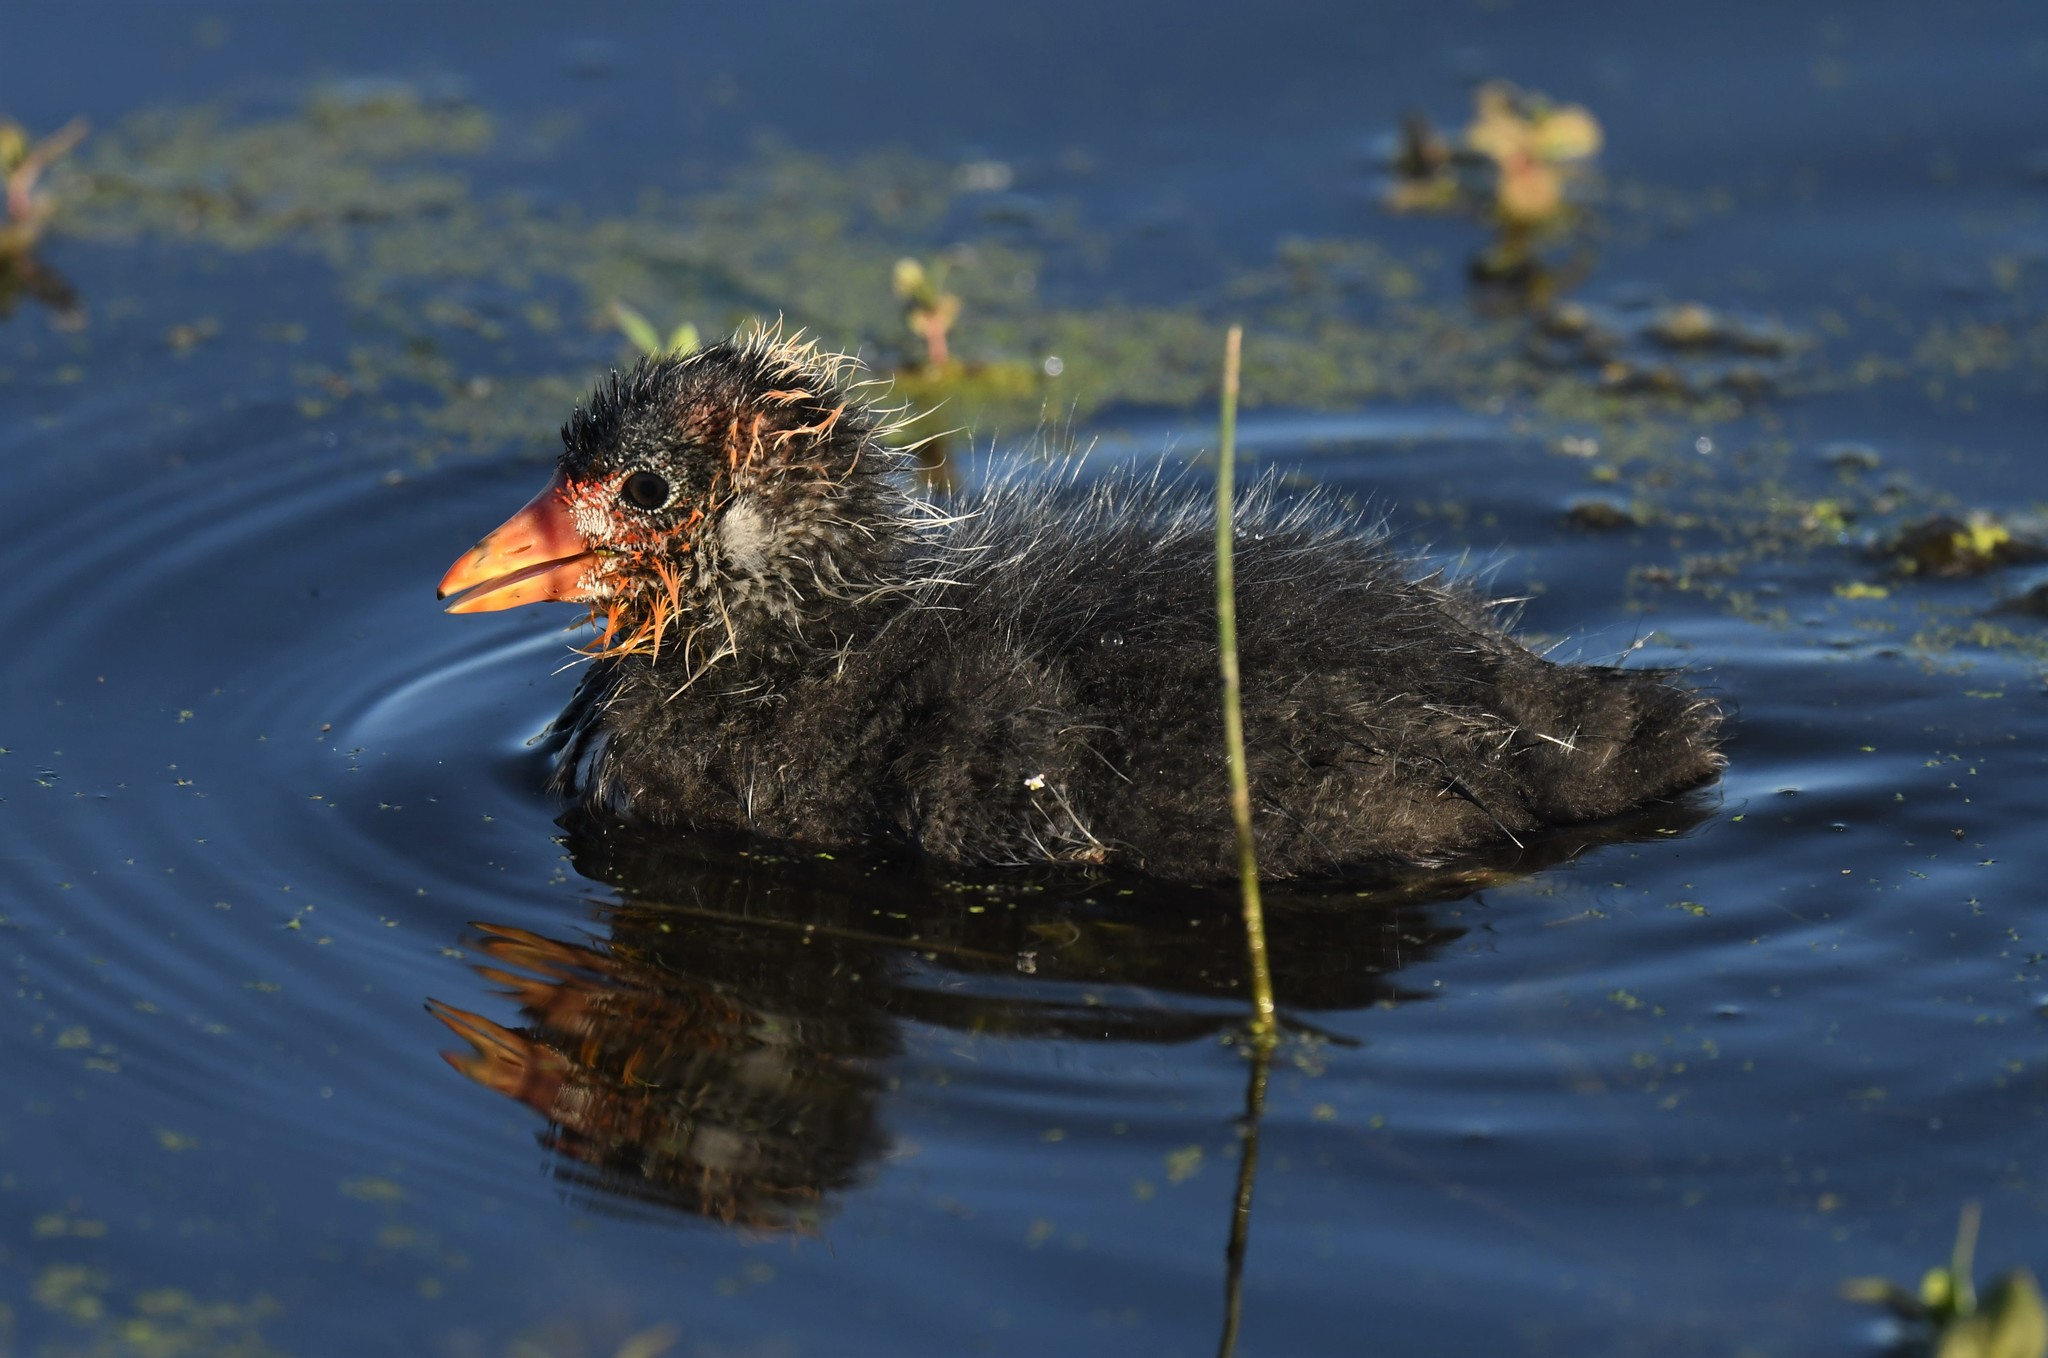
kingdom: Animalia
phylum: Chordata
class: Aves
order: Gruiformes
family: Rallidae
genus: Fulica
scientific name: Fulica americana
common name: American coot
